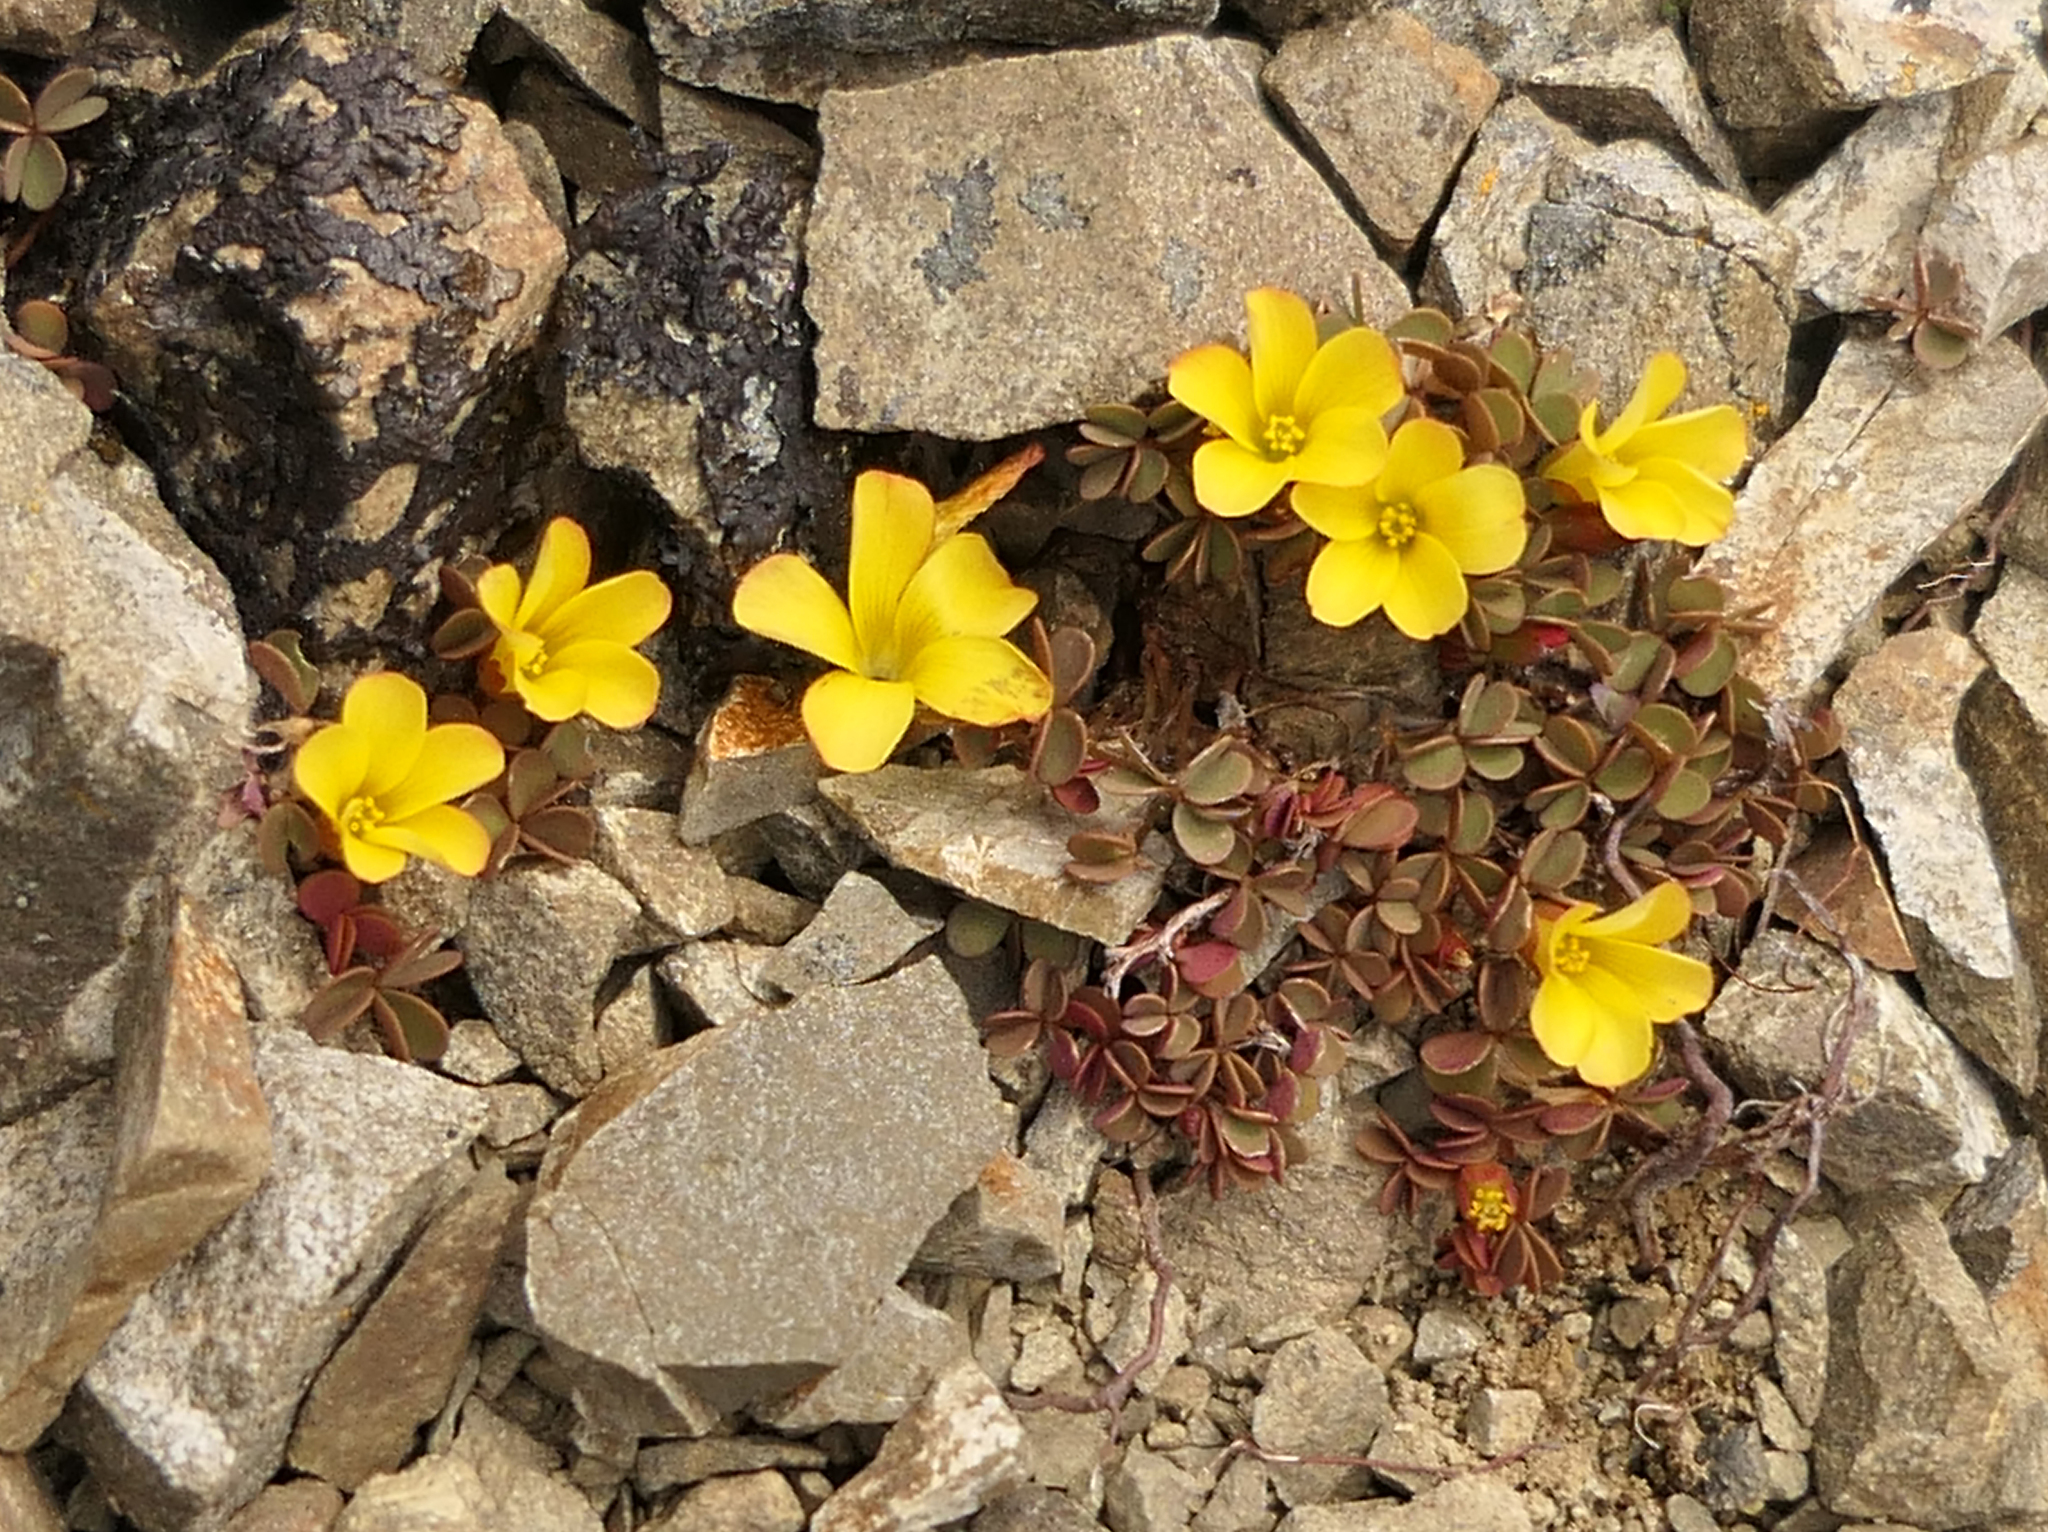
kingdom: Plantae
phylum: Tracheophyta
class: Magnoliopsida
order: Oxalidales
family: Oxalidaceae
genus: Oxalis
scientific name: Oxalis exilis
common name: Least yellow-sorrel
